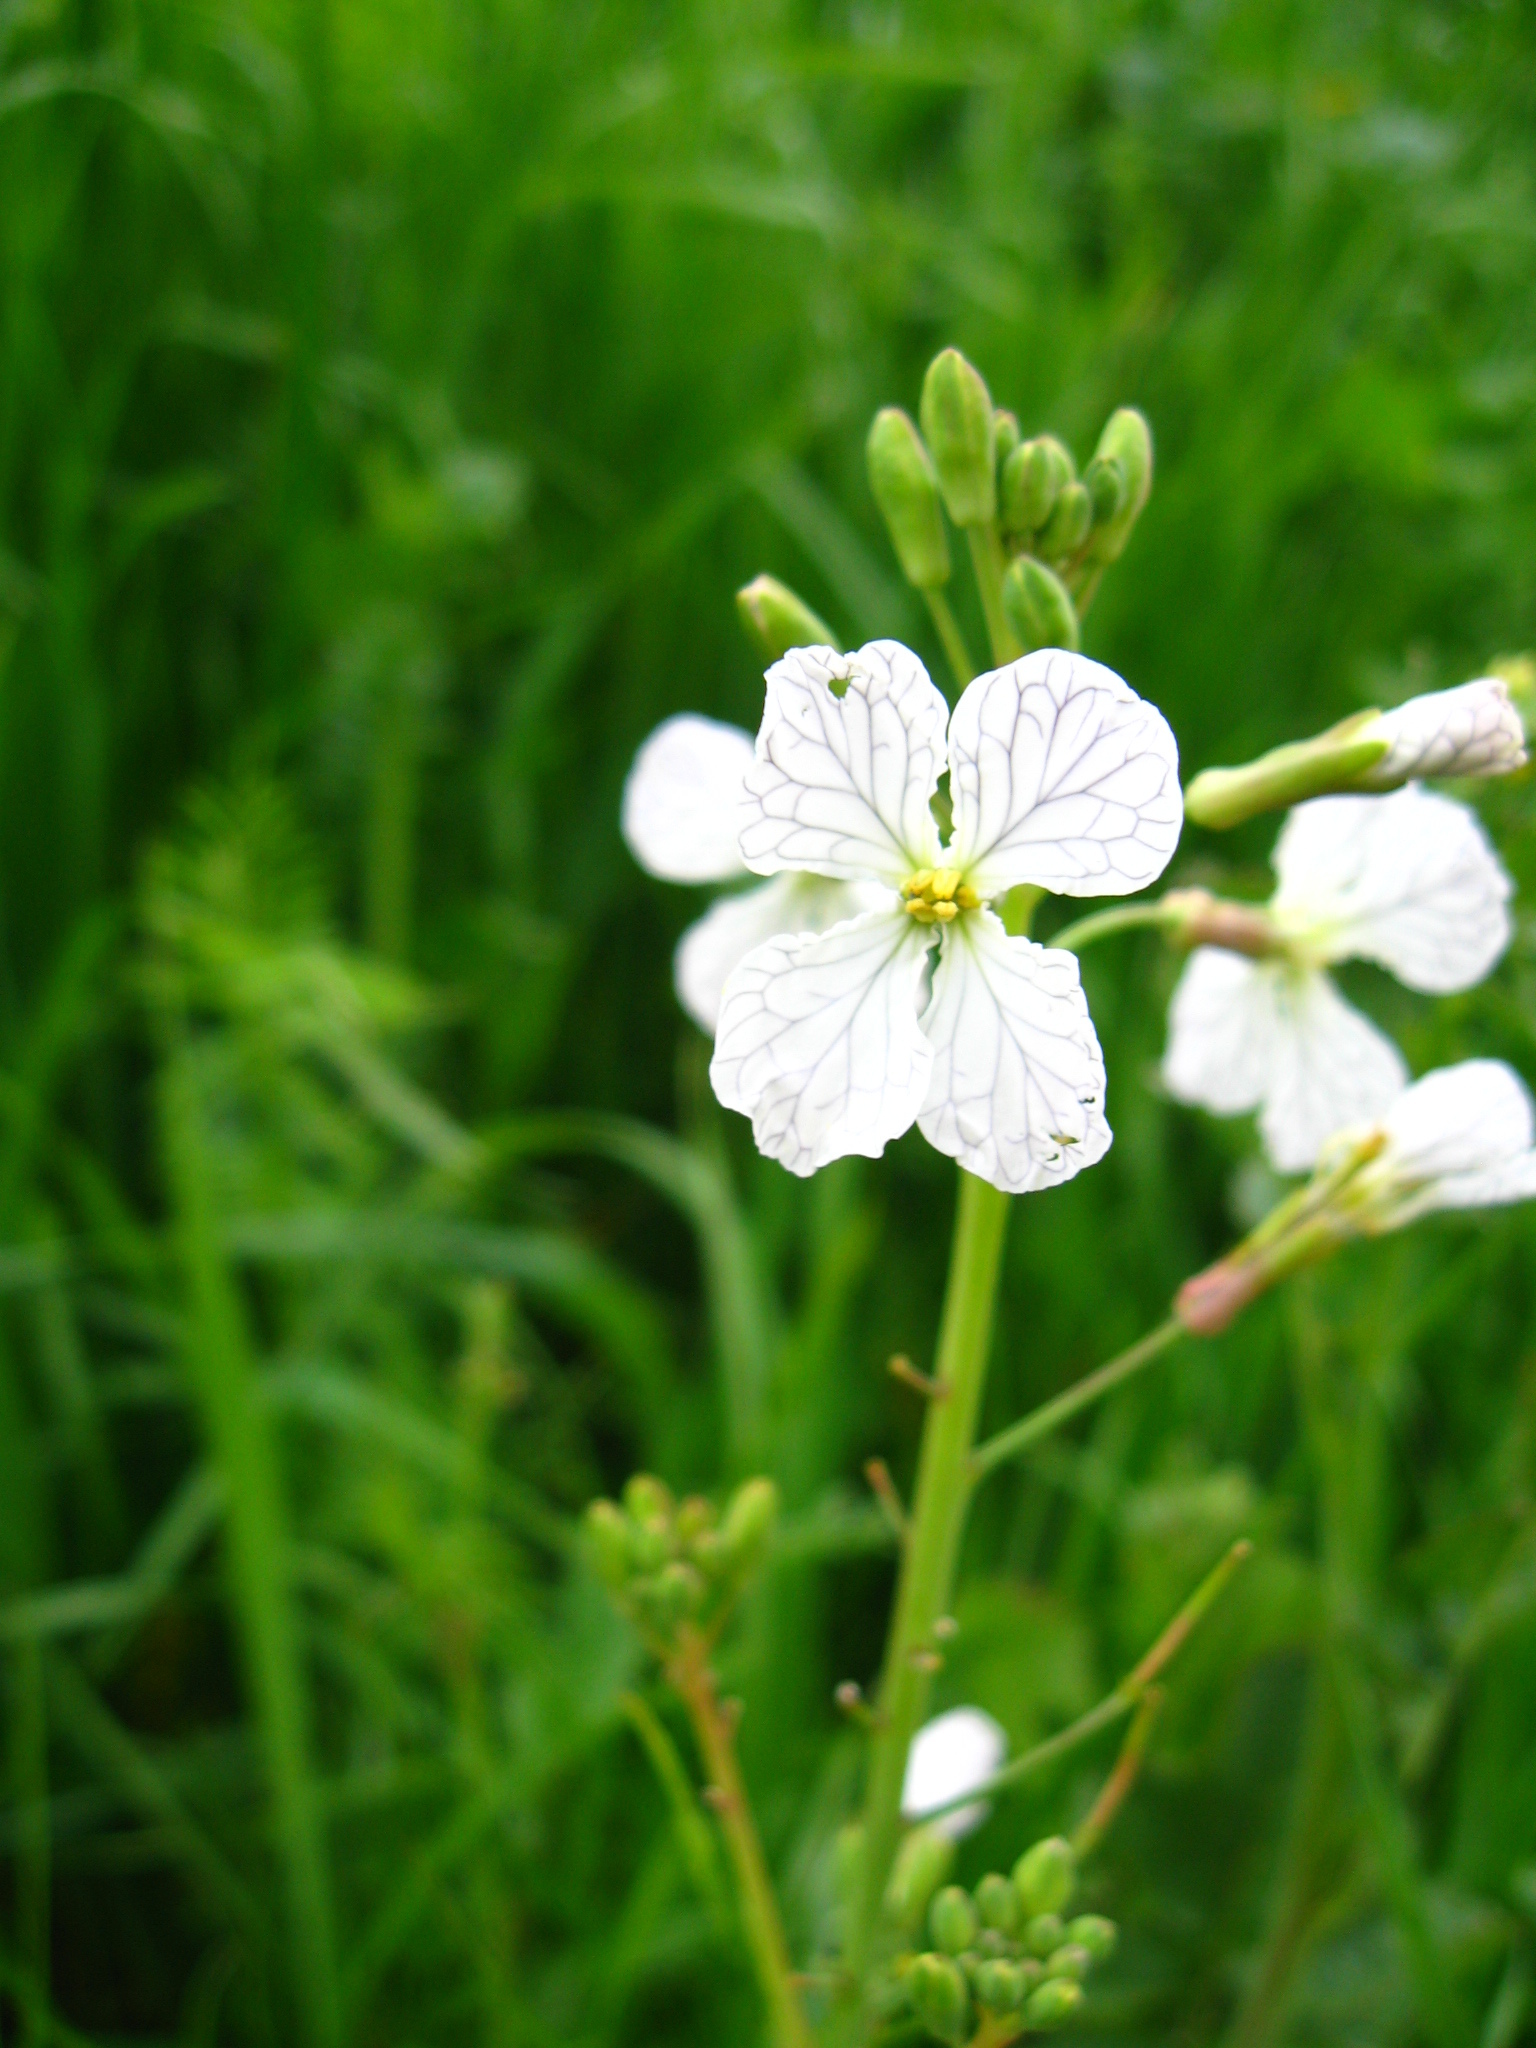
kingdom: Plantae
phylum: Tracheophyta
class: Magnoliopsida
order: Brassicales
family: Brassicaceae
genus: Raphanus
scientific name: Raphanus sativus
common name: Cultivated radish
